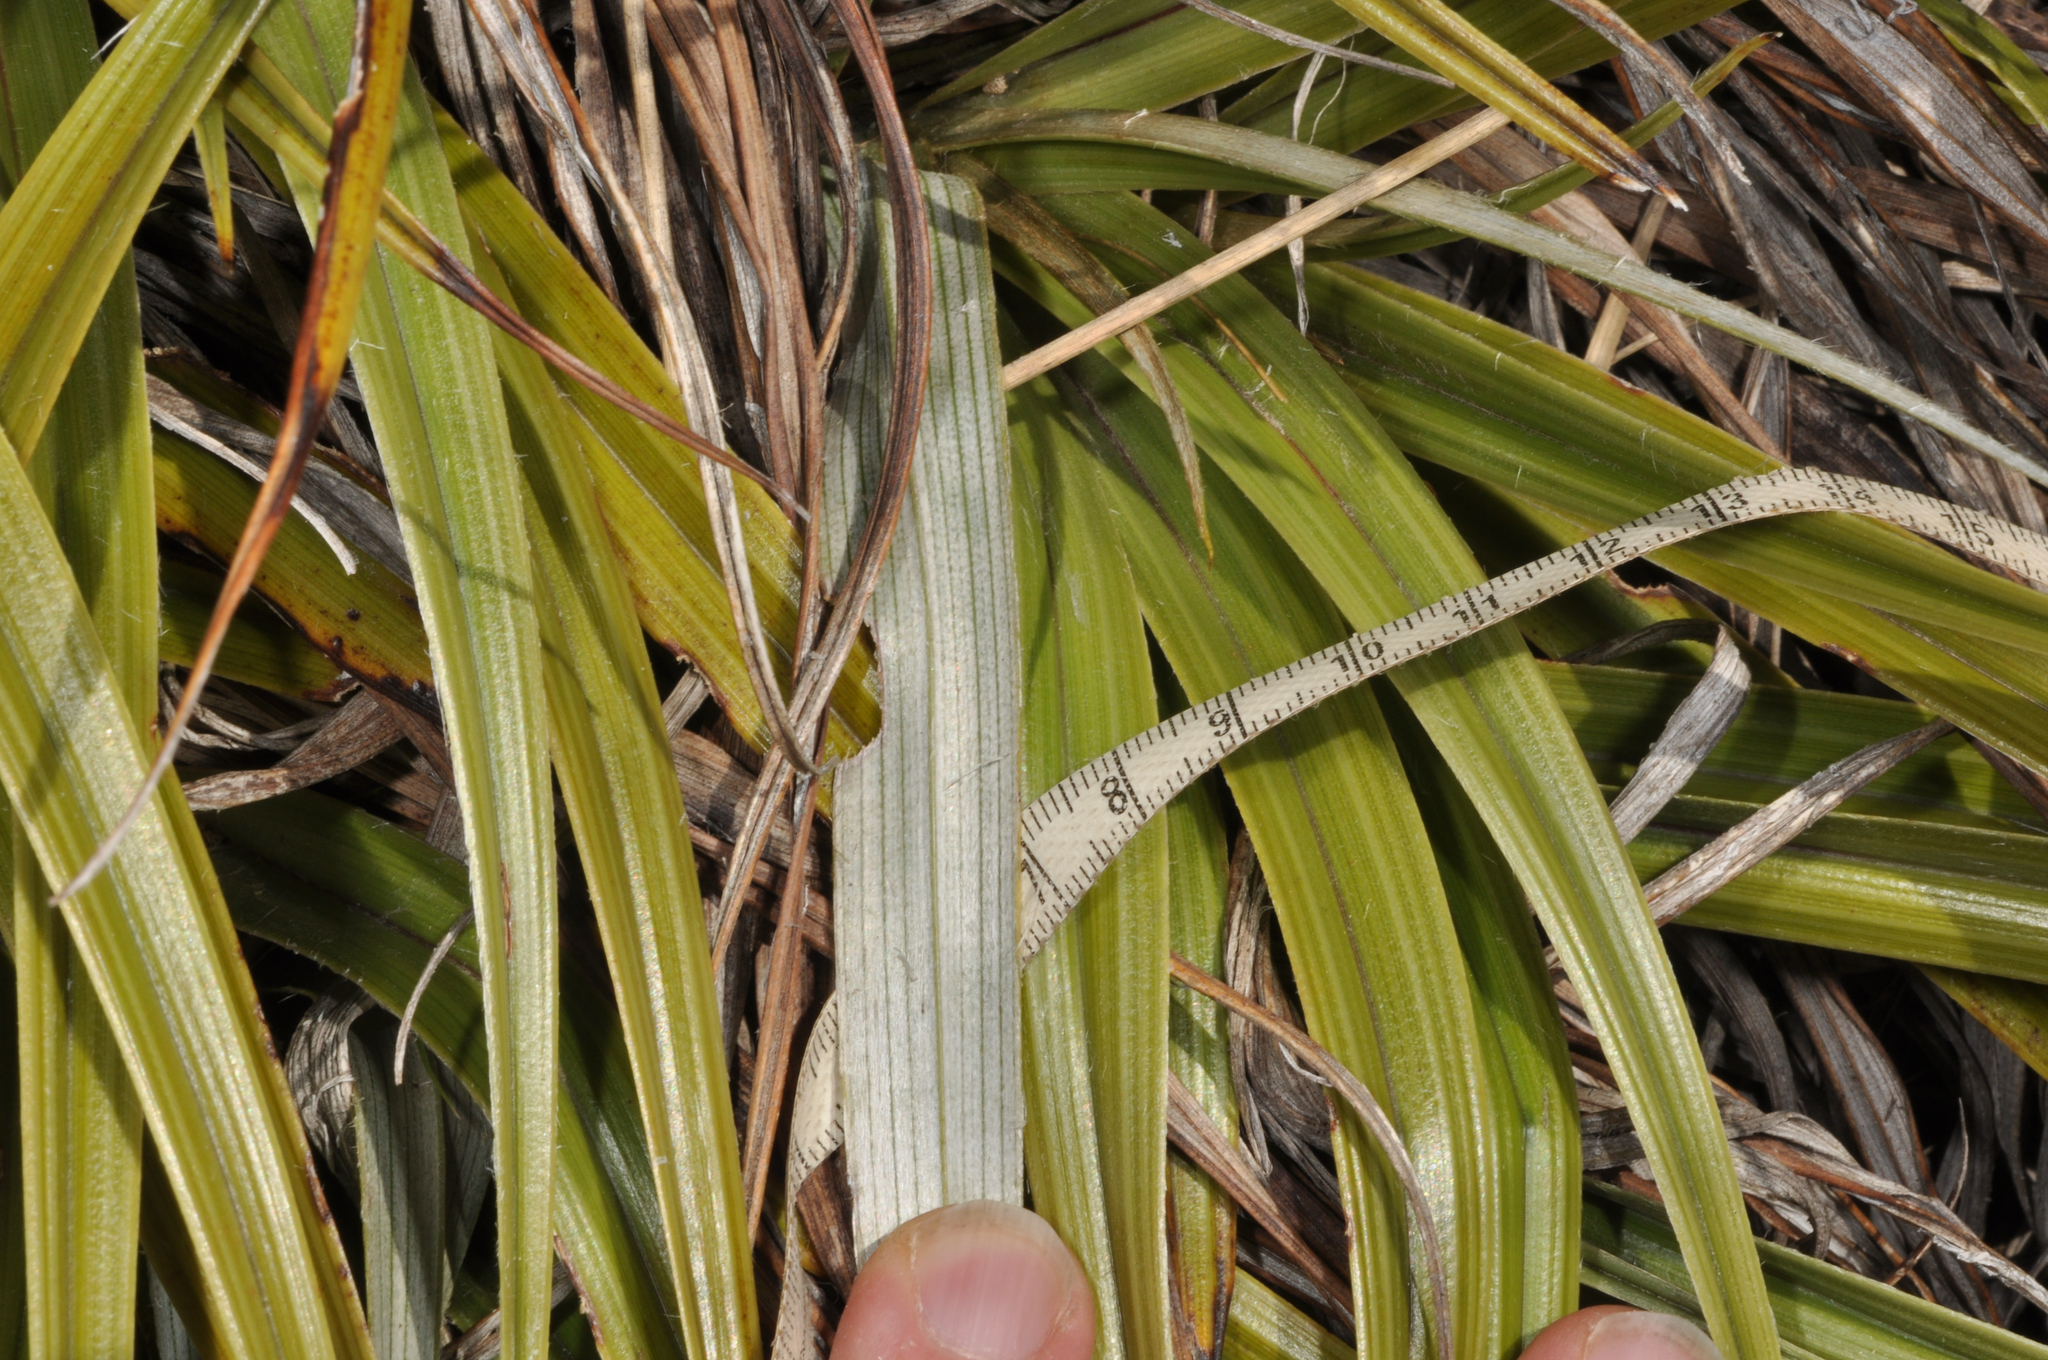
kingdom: Plantae
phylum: Tracheophyta
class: Liliopsida
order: Asparagales
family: Asteliaceae
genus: Astelia
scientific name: Astelia nivicola
